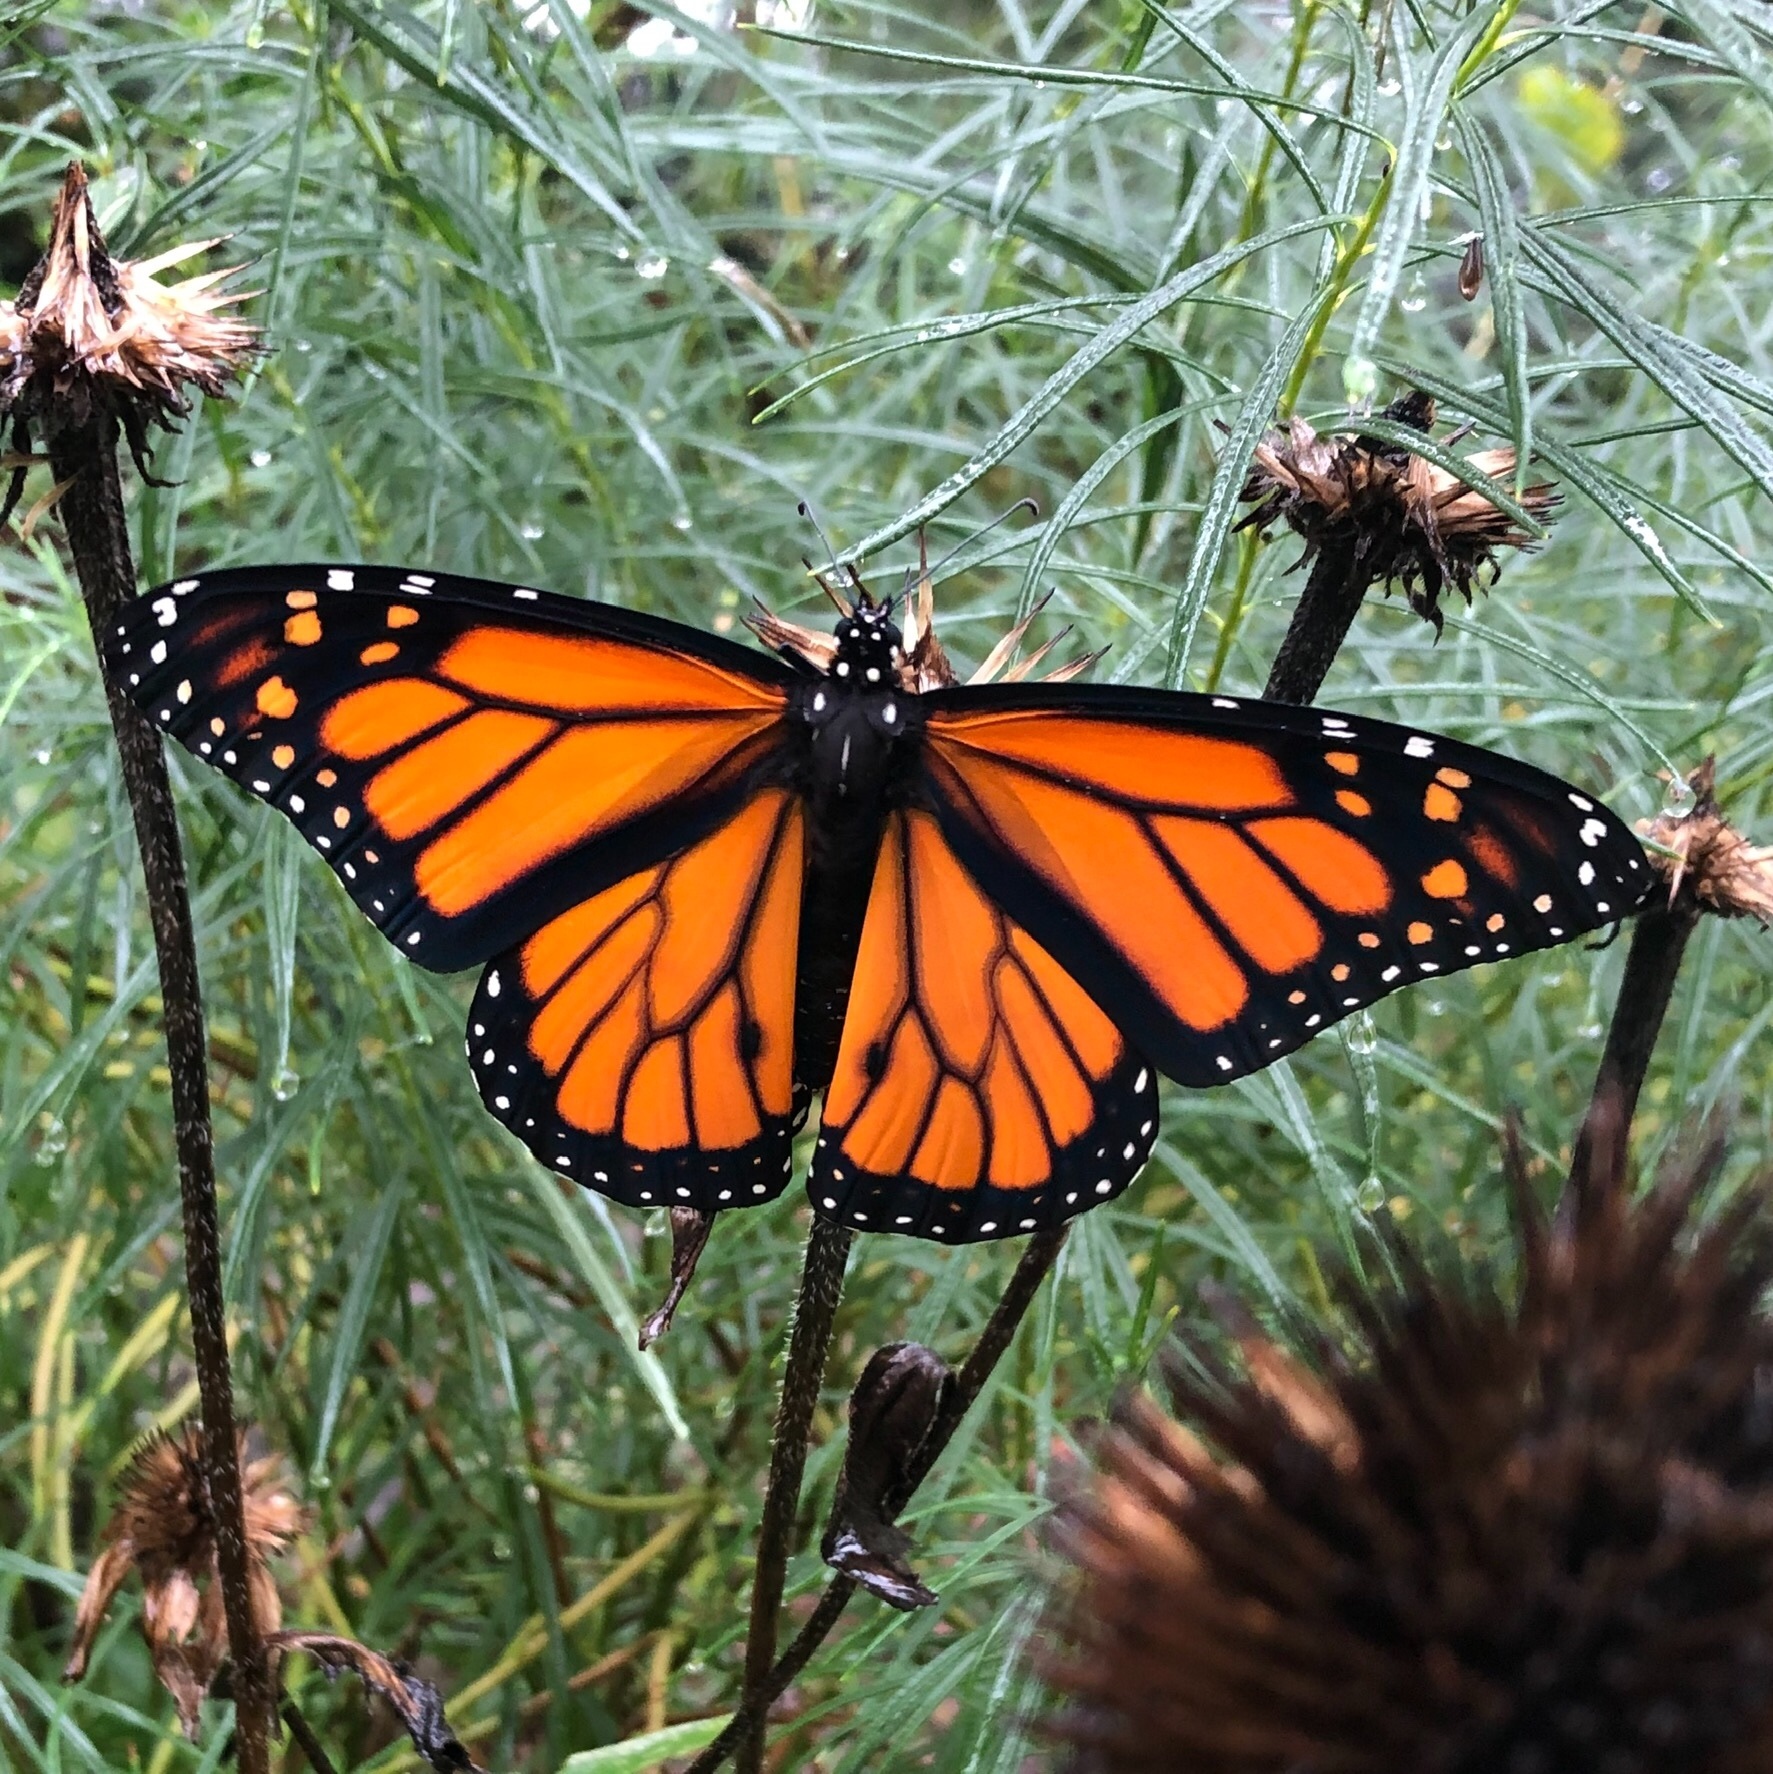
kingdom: Animalia
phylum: Arthropoda
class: Insecta
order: Lepidoptera
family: Nymphalidae
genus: Danaus
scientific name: Danaus plexippus
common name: Monarch
